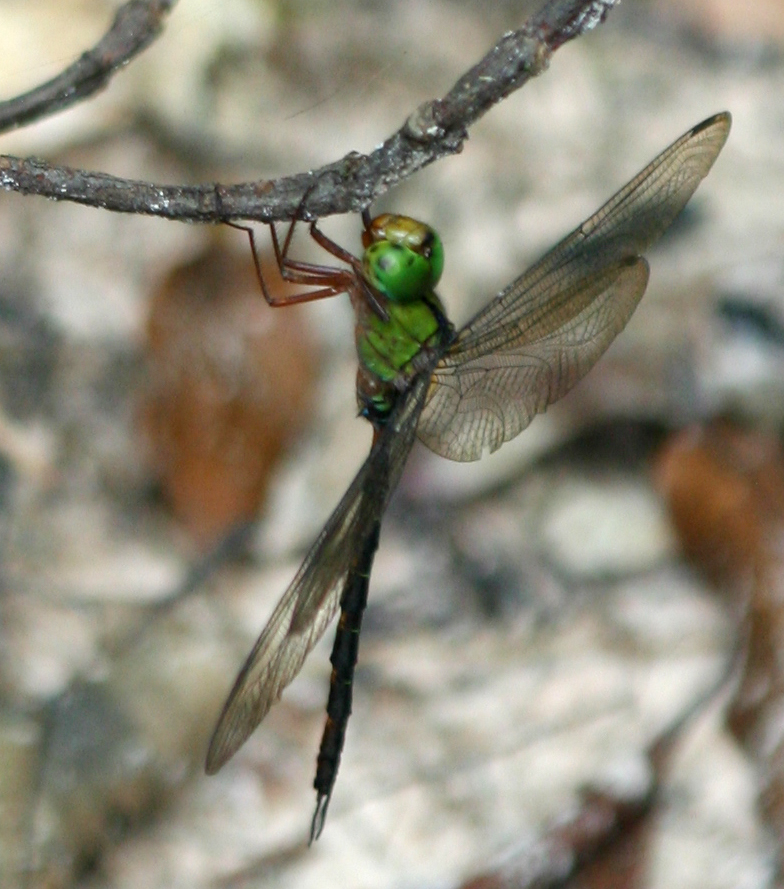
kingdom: Animalia
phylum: Arthropoda
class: Insecta
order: Odonata
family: Aeshnidae
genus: Gynacantha
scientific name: Gynacantha demeter
